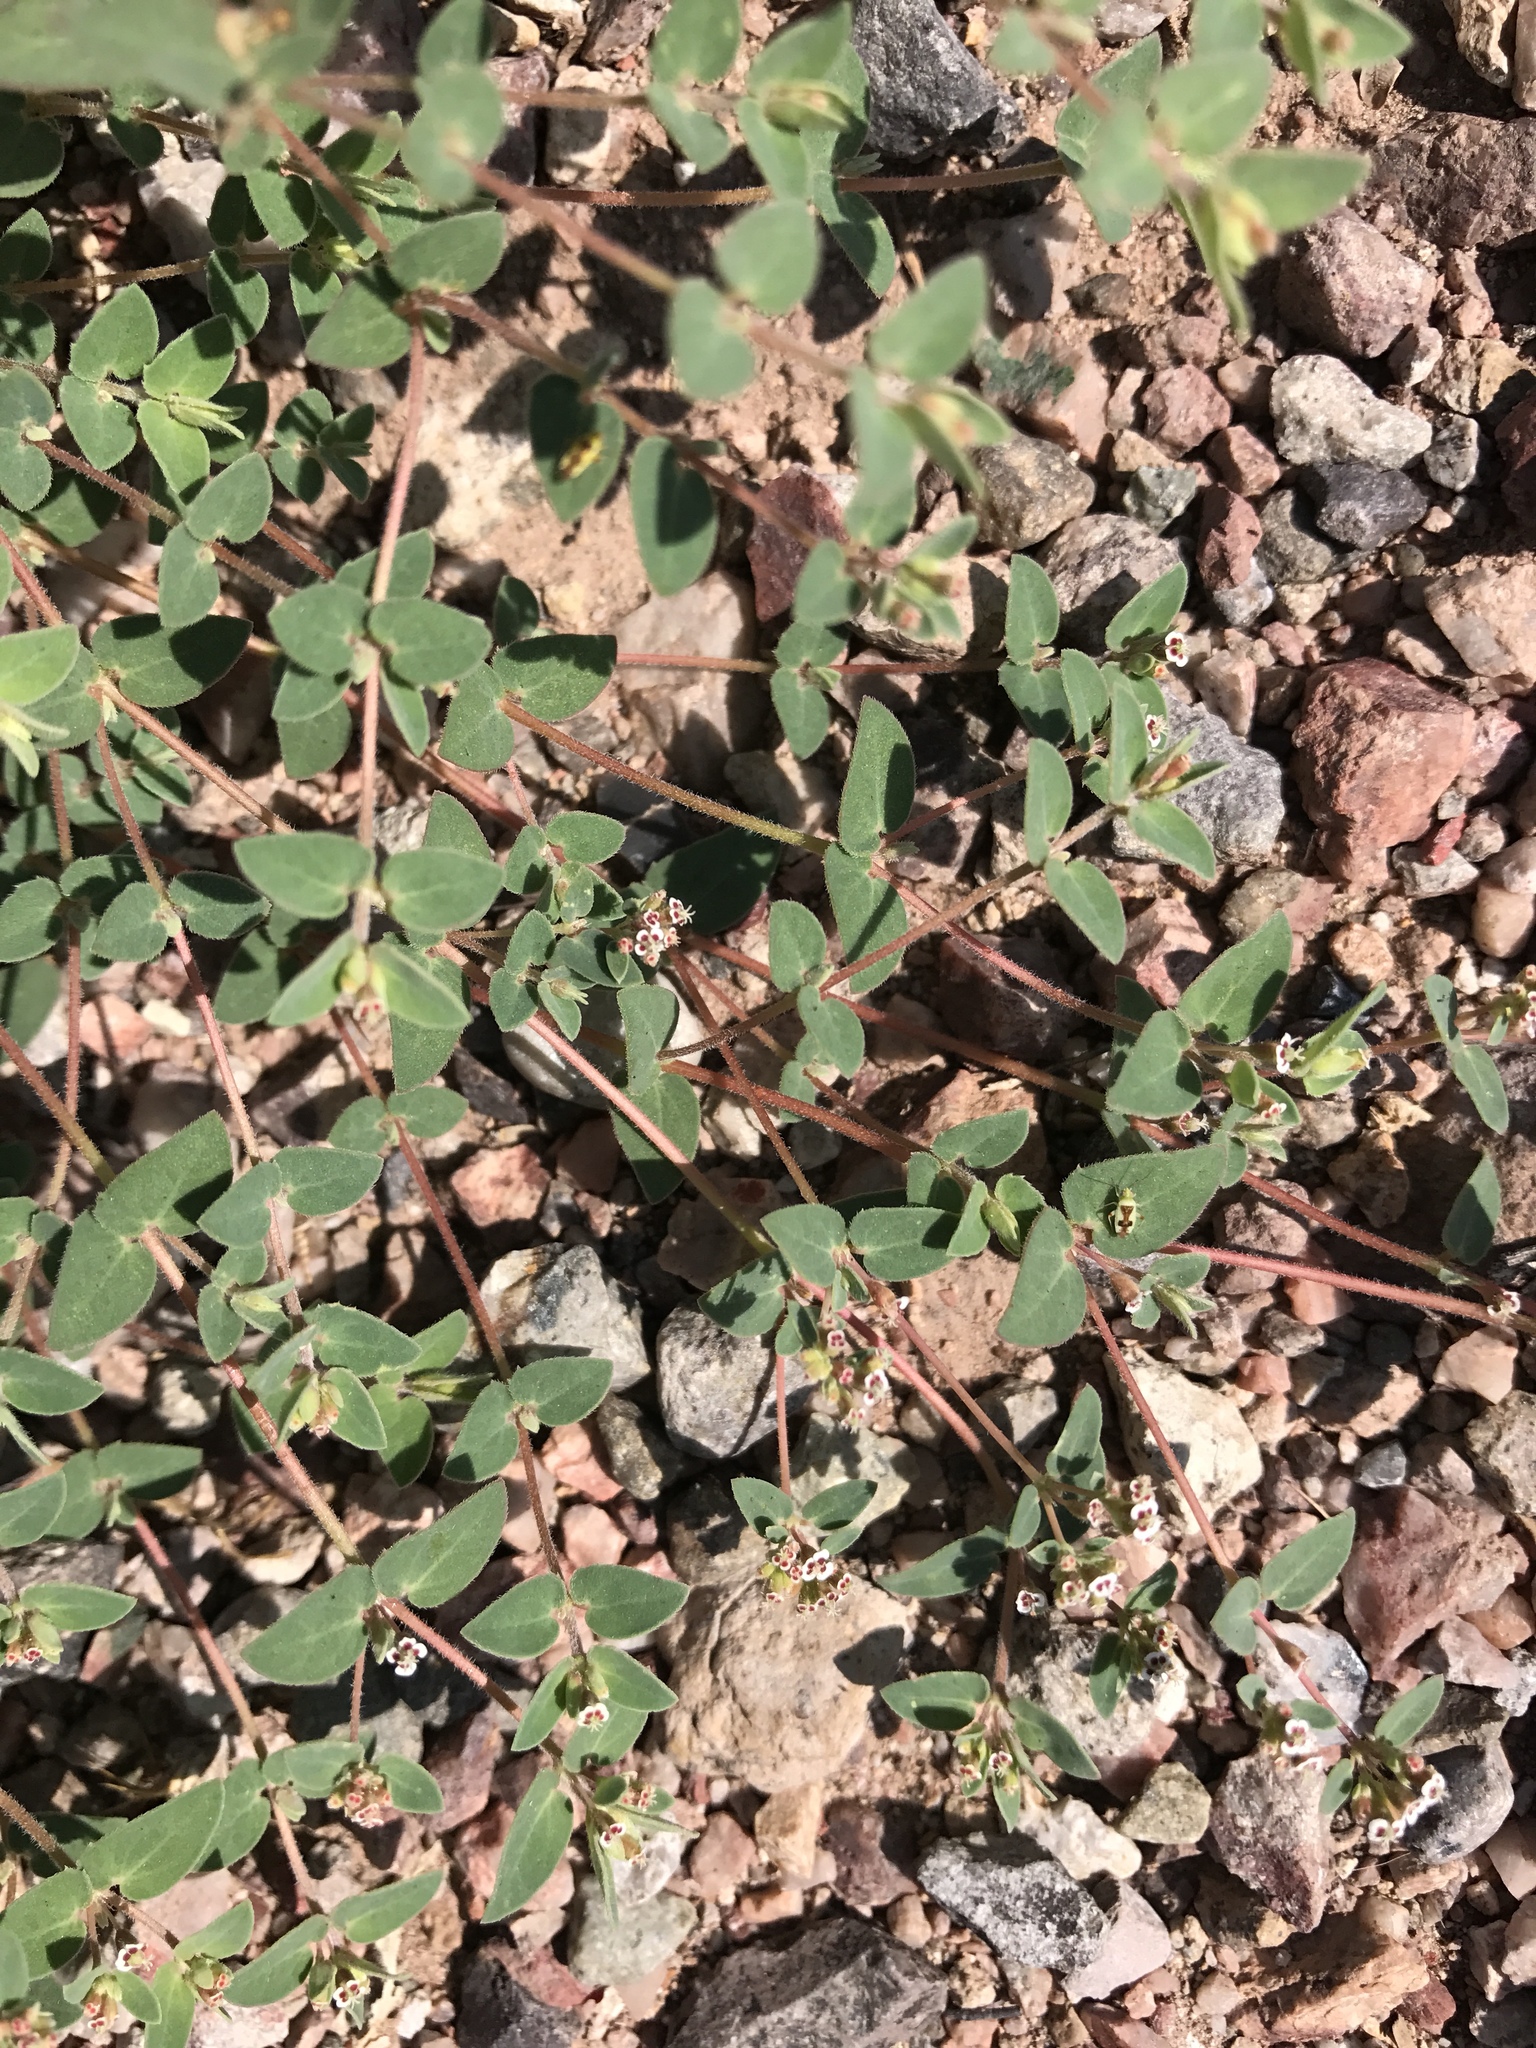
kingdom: Plantae
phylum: Tracheophyta
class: Magnoliopsida
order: Malpighiales
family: Euphorbiaceae
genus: Euphorbia
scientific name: Euphorbia capitellata
